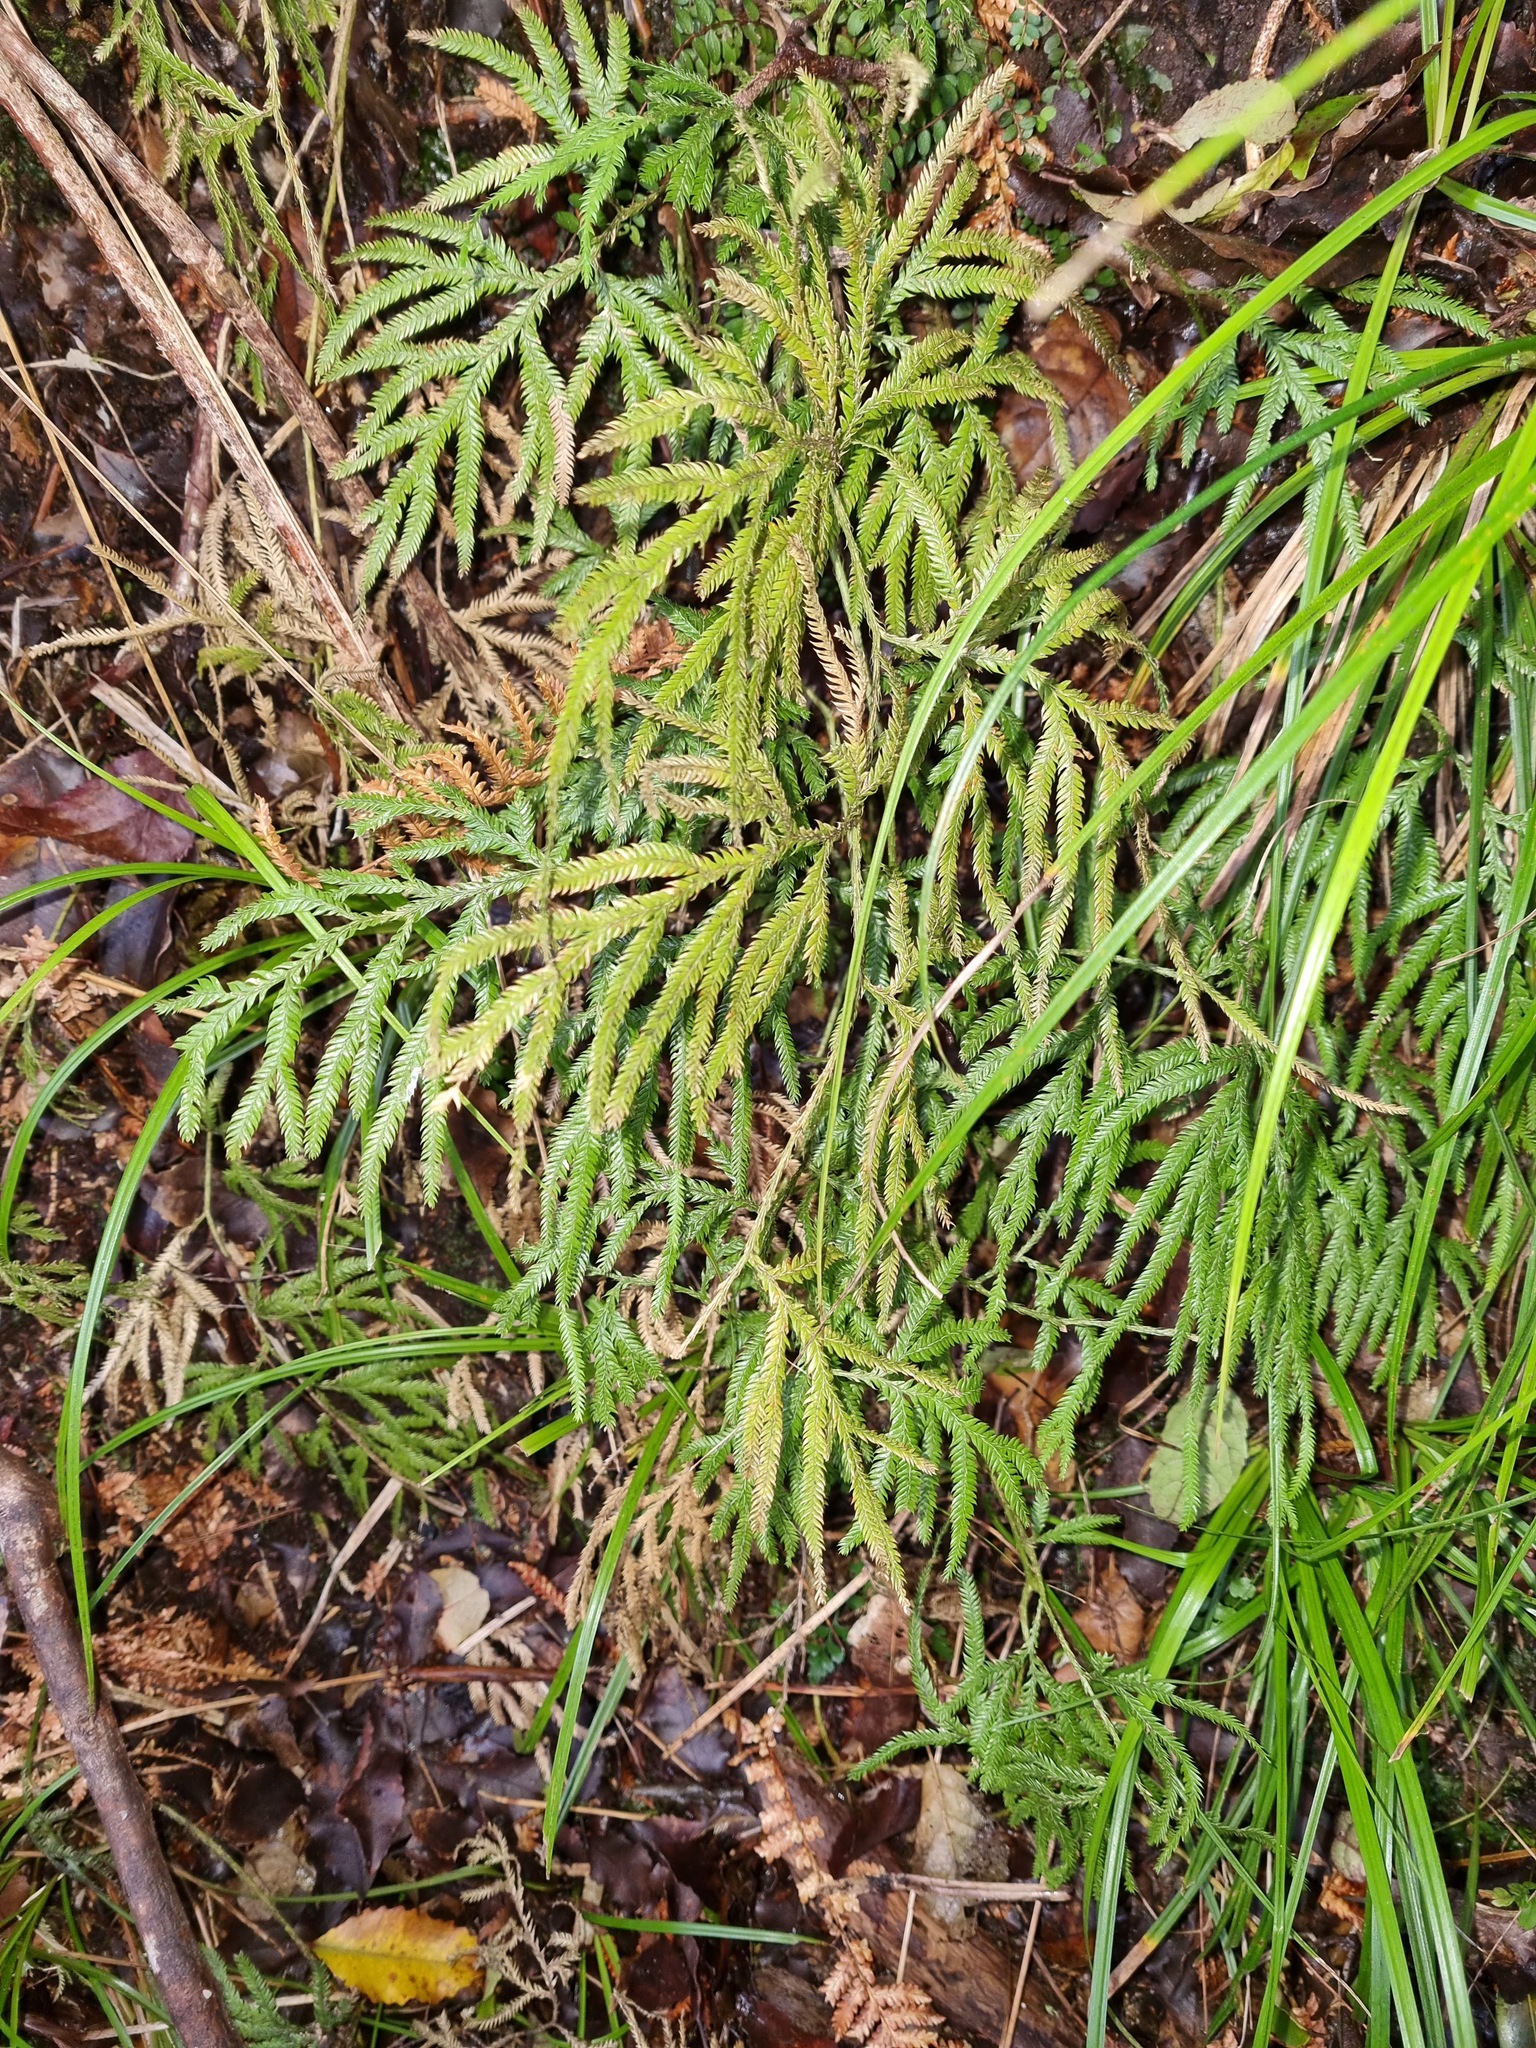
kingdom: Plantae
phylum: Tracheophyta
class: Lycopodiopsida
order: Lycopodiales
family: Lycopodiaceae
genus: Lycopodium
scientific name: Lycopodium volubile
